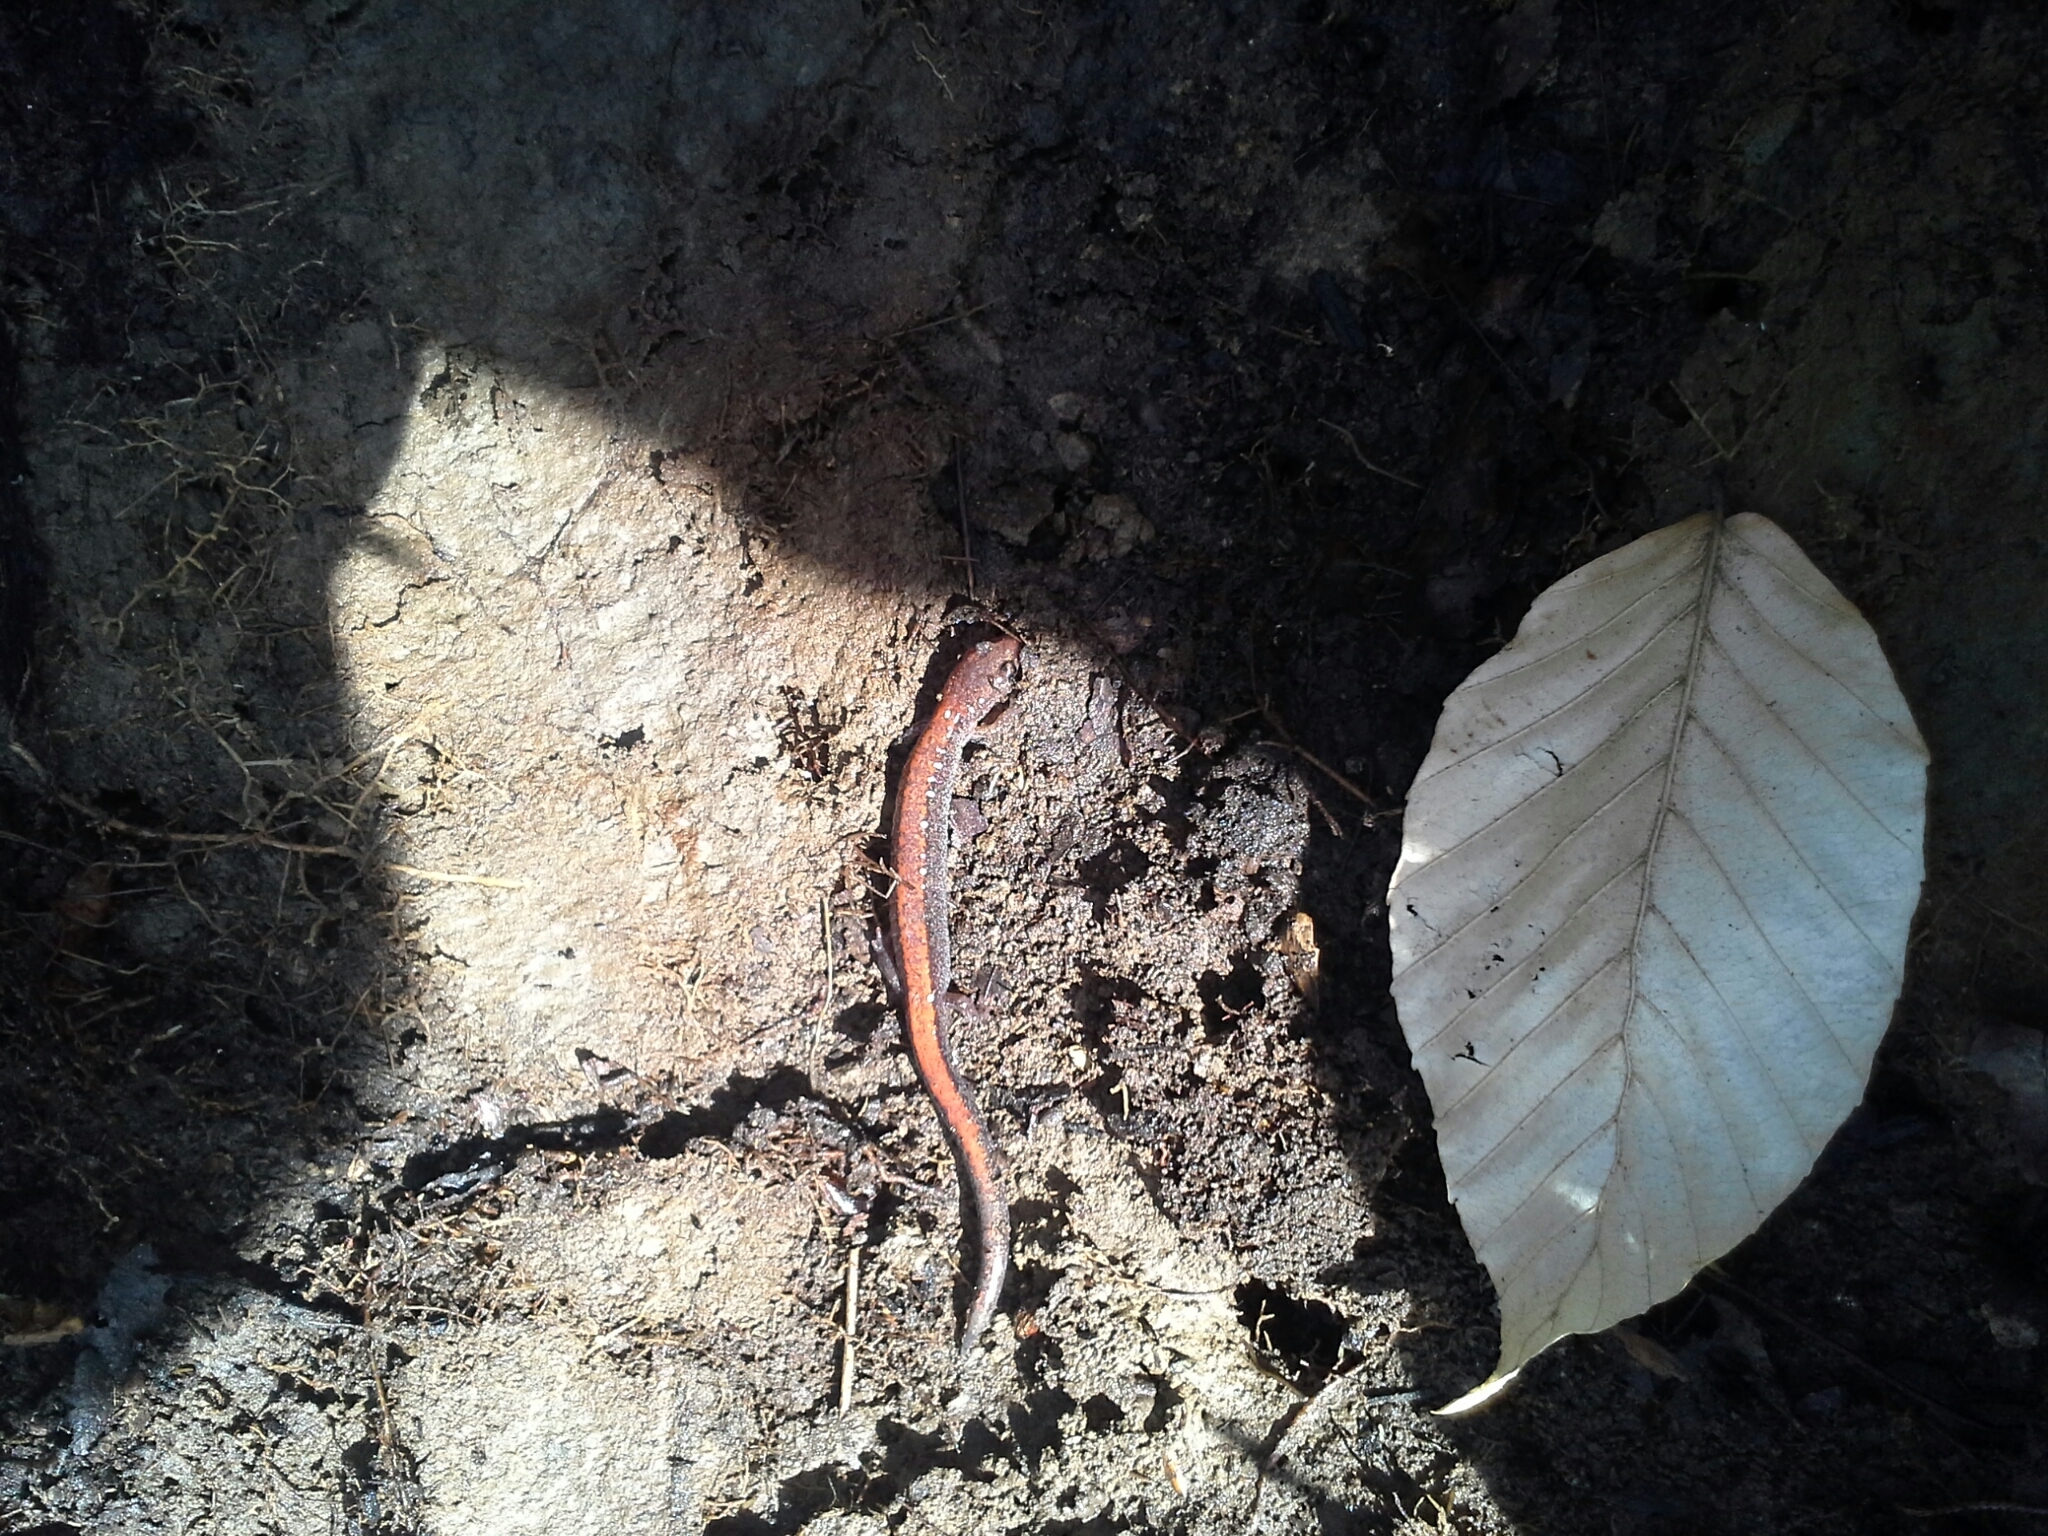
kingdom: Animalia
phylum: Chordata
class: Amphibia
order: Caudata
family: Plethodontidae
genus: Plethodon
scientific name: Plethodon cinereus
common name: Redback salamander
